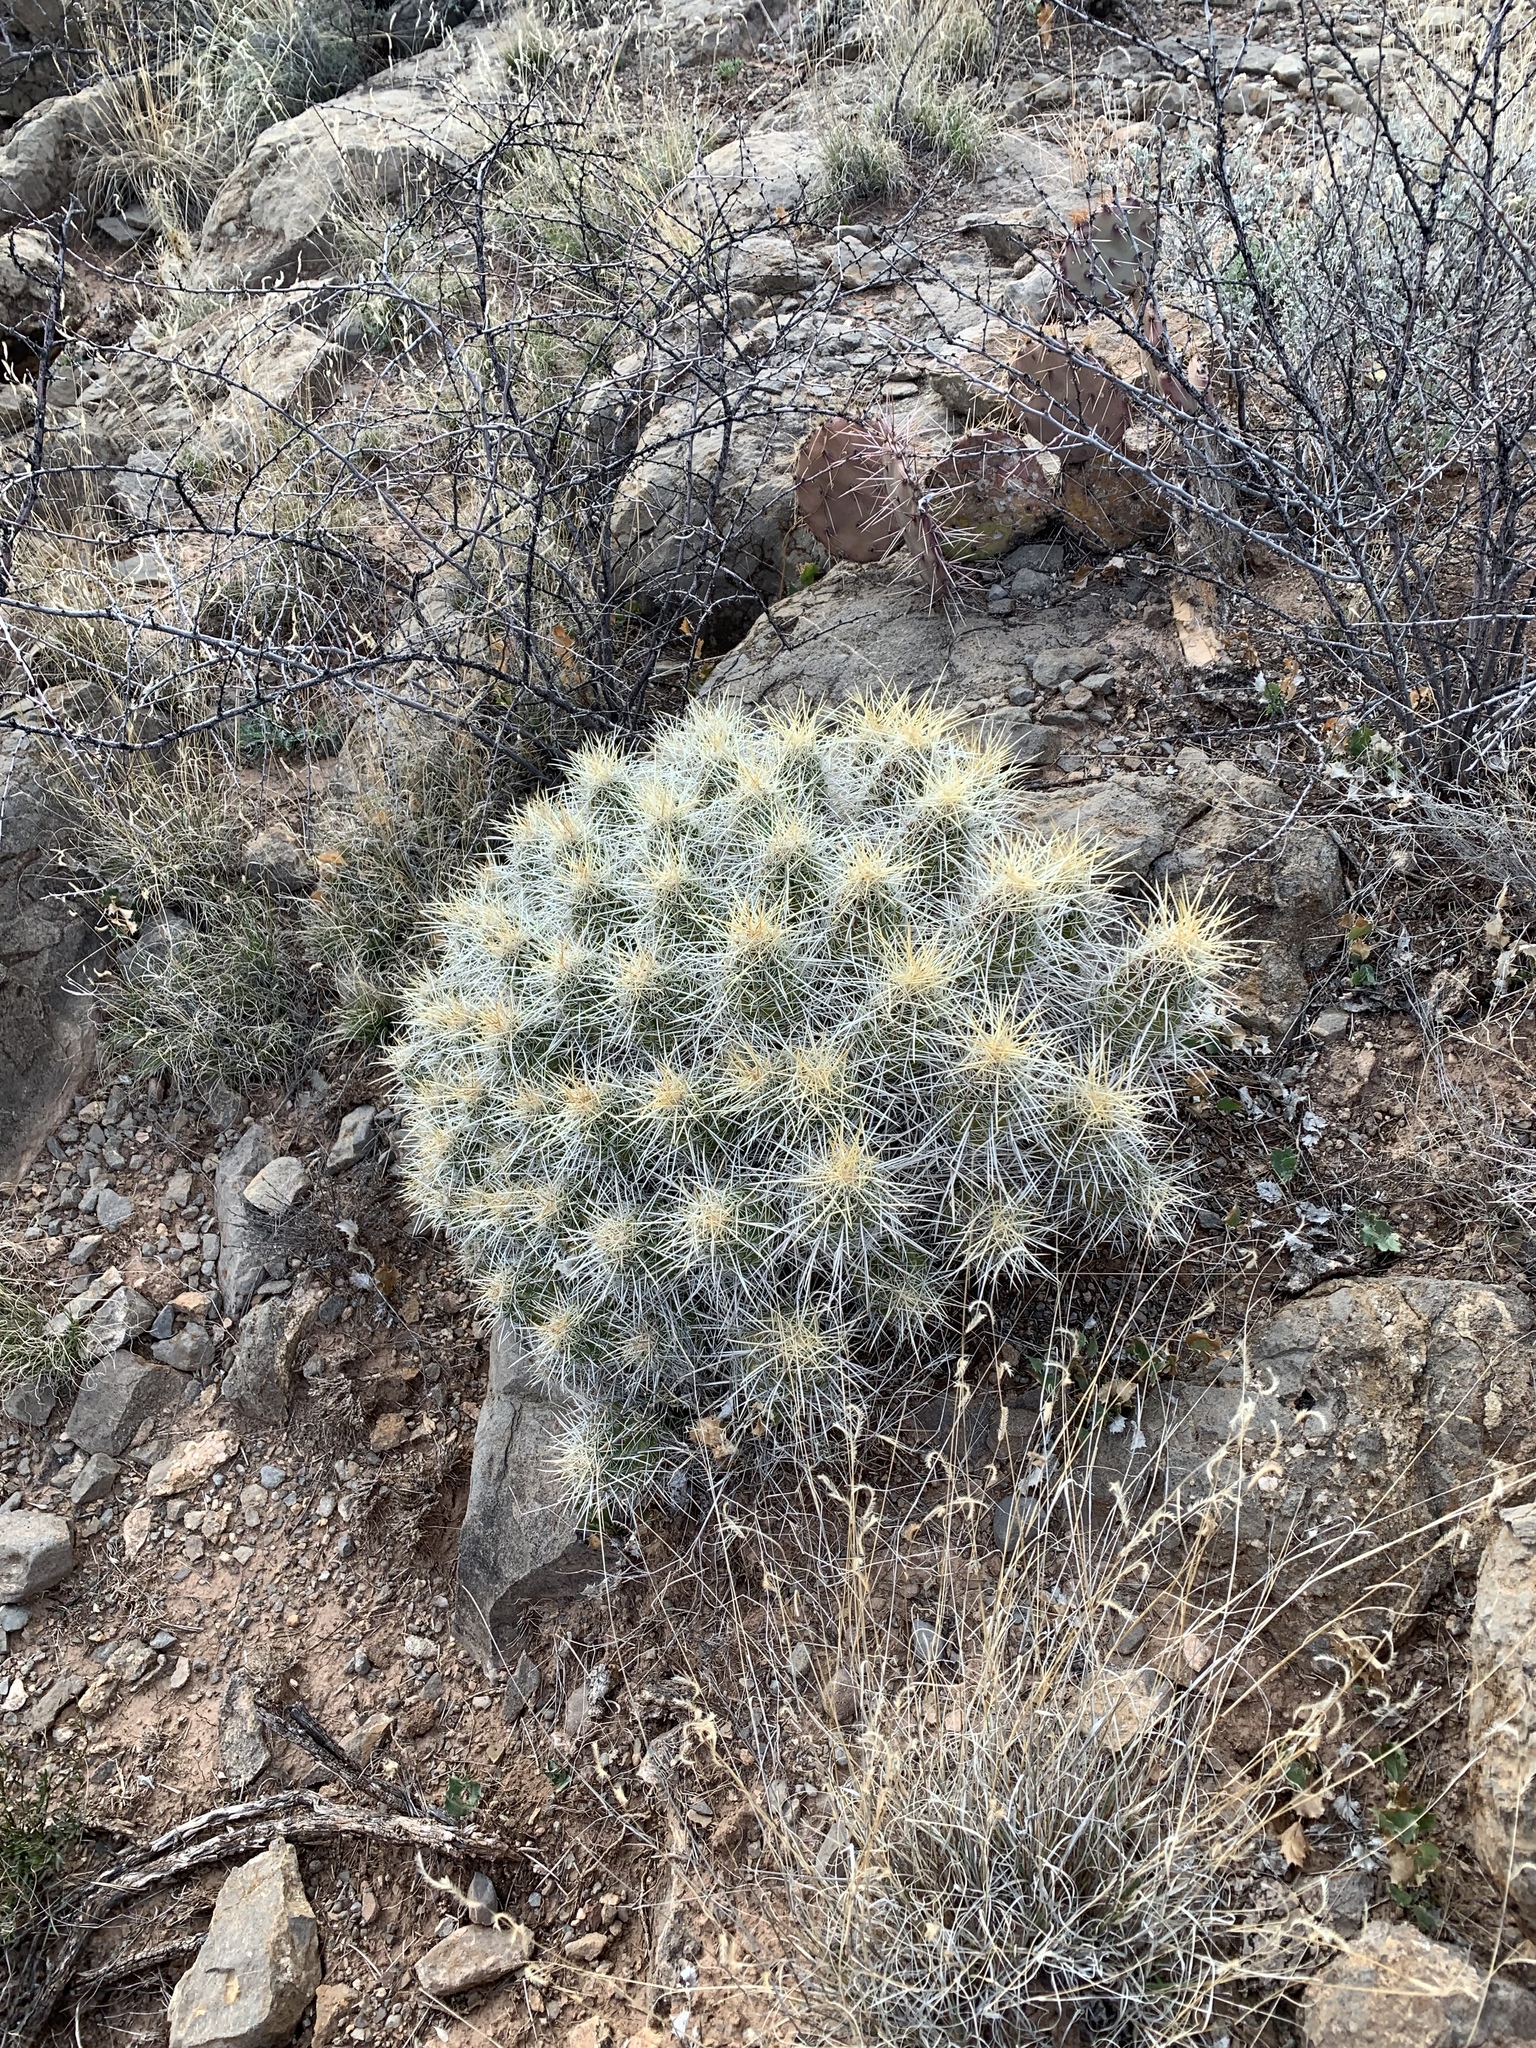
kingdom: Plantae
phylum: Tracheophyta
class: Magnoliopsida
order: Caryophyllales
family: Cactaceae
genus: Echinocereus
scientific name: Echinocereus stramineus
